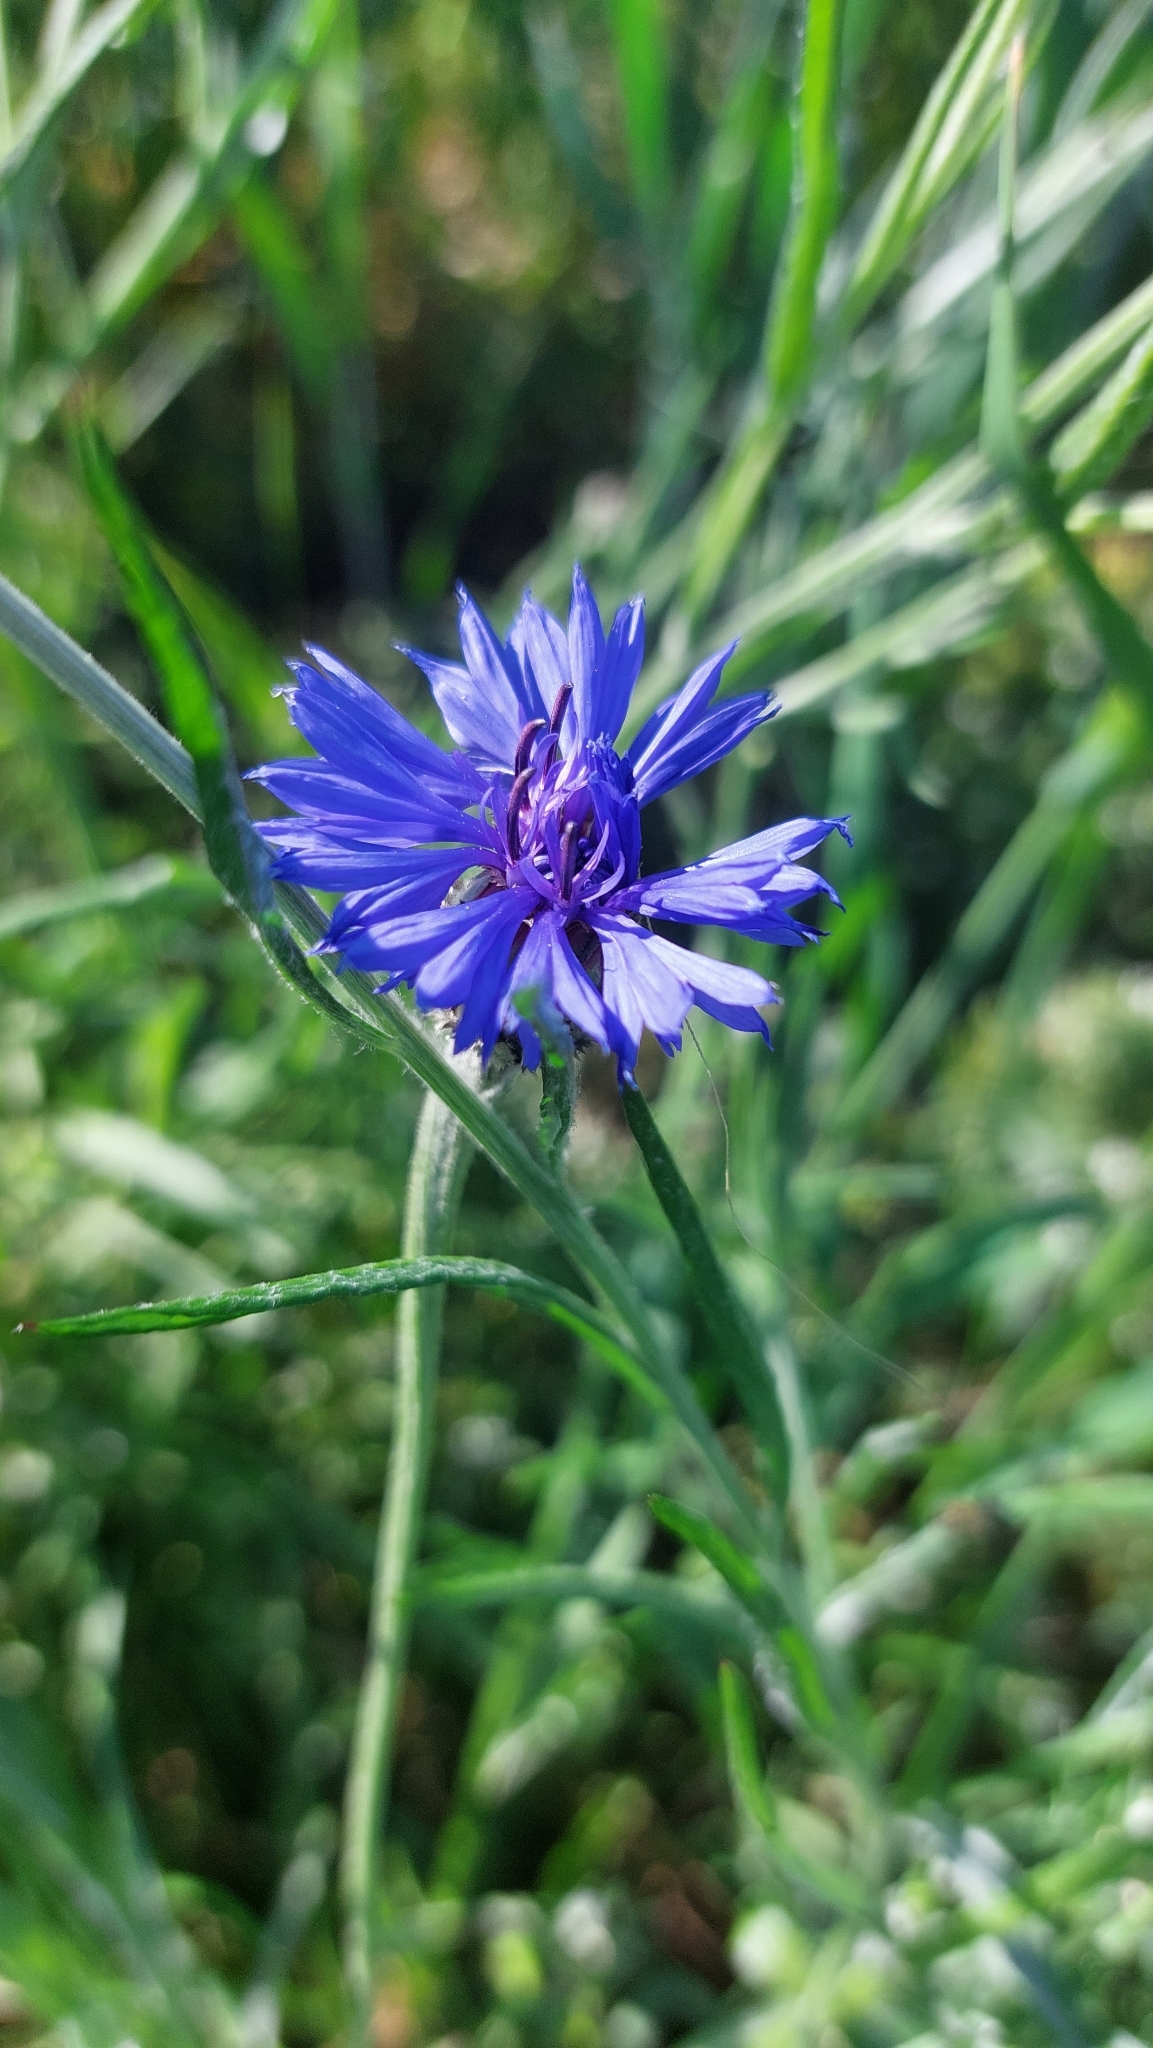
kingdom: Plantae
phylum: Tracheophyta
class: Magnoliopsida
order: Asterales
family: Asteraceae
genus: Centaurea
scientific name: Centaurea cyanus
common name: Cornflower
